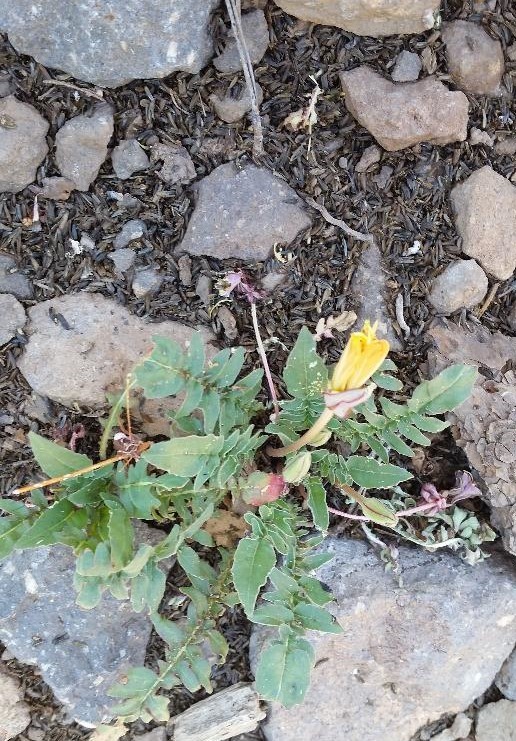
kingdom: Plantae
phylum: Tracheophyta
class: Magnoliopsida
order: Myrtales
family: Onagraceae
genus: Oenothera
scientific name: Oenothera flava
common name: Long-tubed evening-primrose
